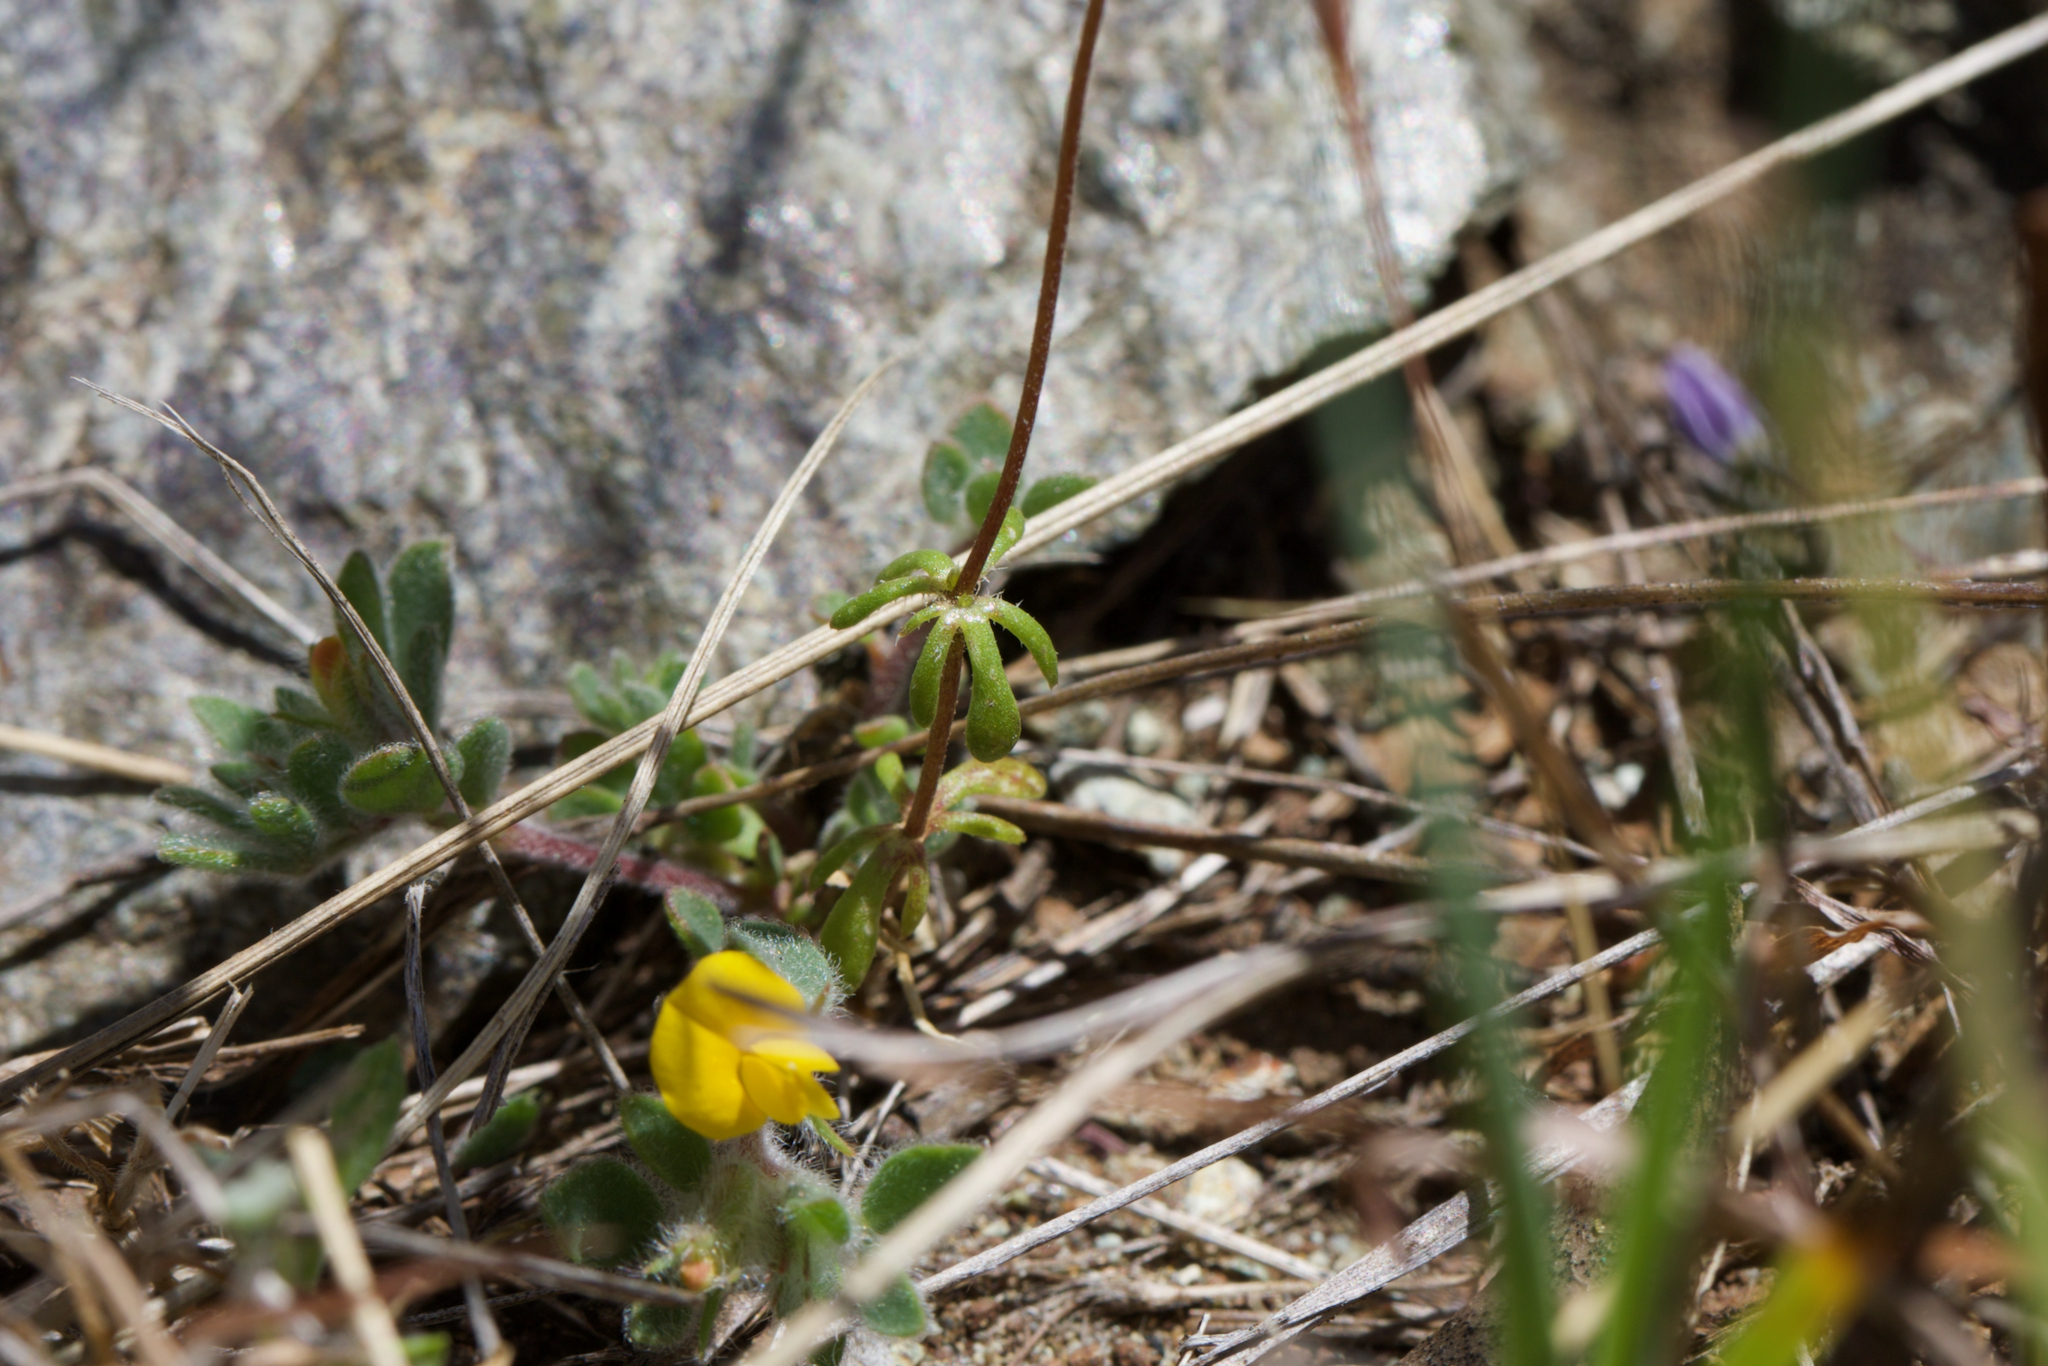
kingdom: Plantae
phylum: Tracheophyta
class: Magnoliopsida
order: Ericales
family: Polemoniaceae
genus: Leptosiphon
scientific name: Leptosiphon androsaceus
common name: False babystars
